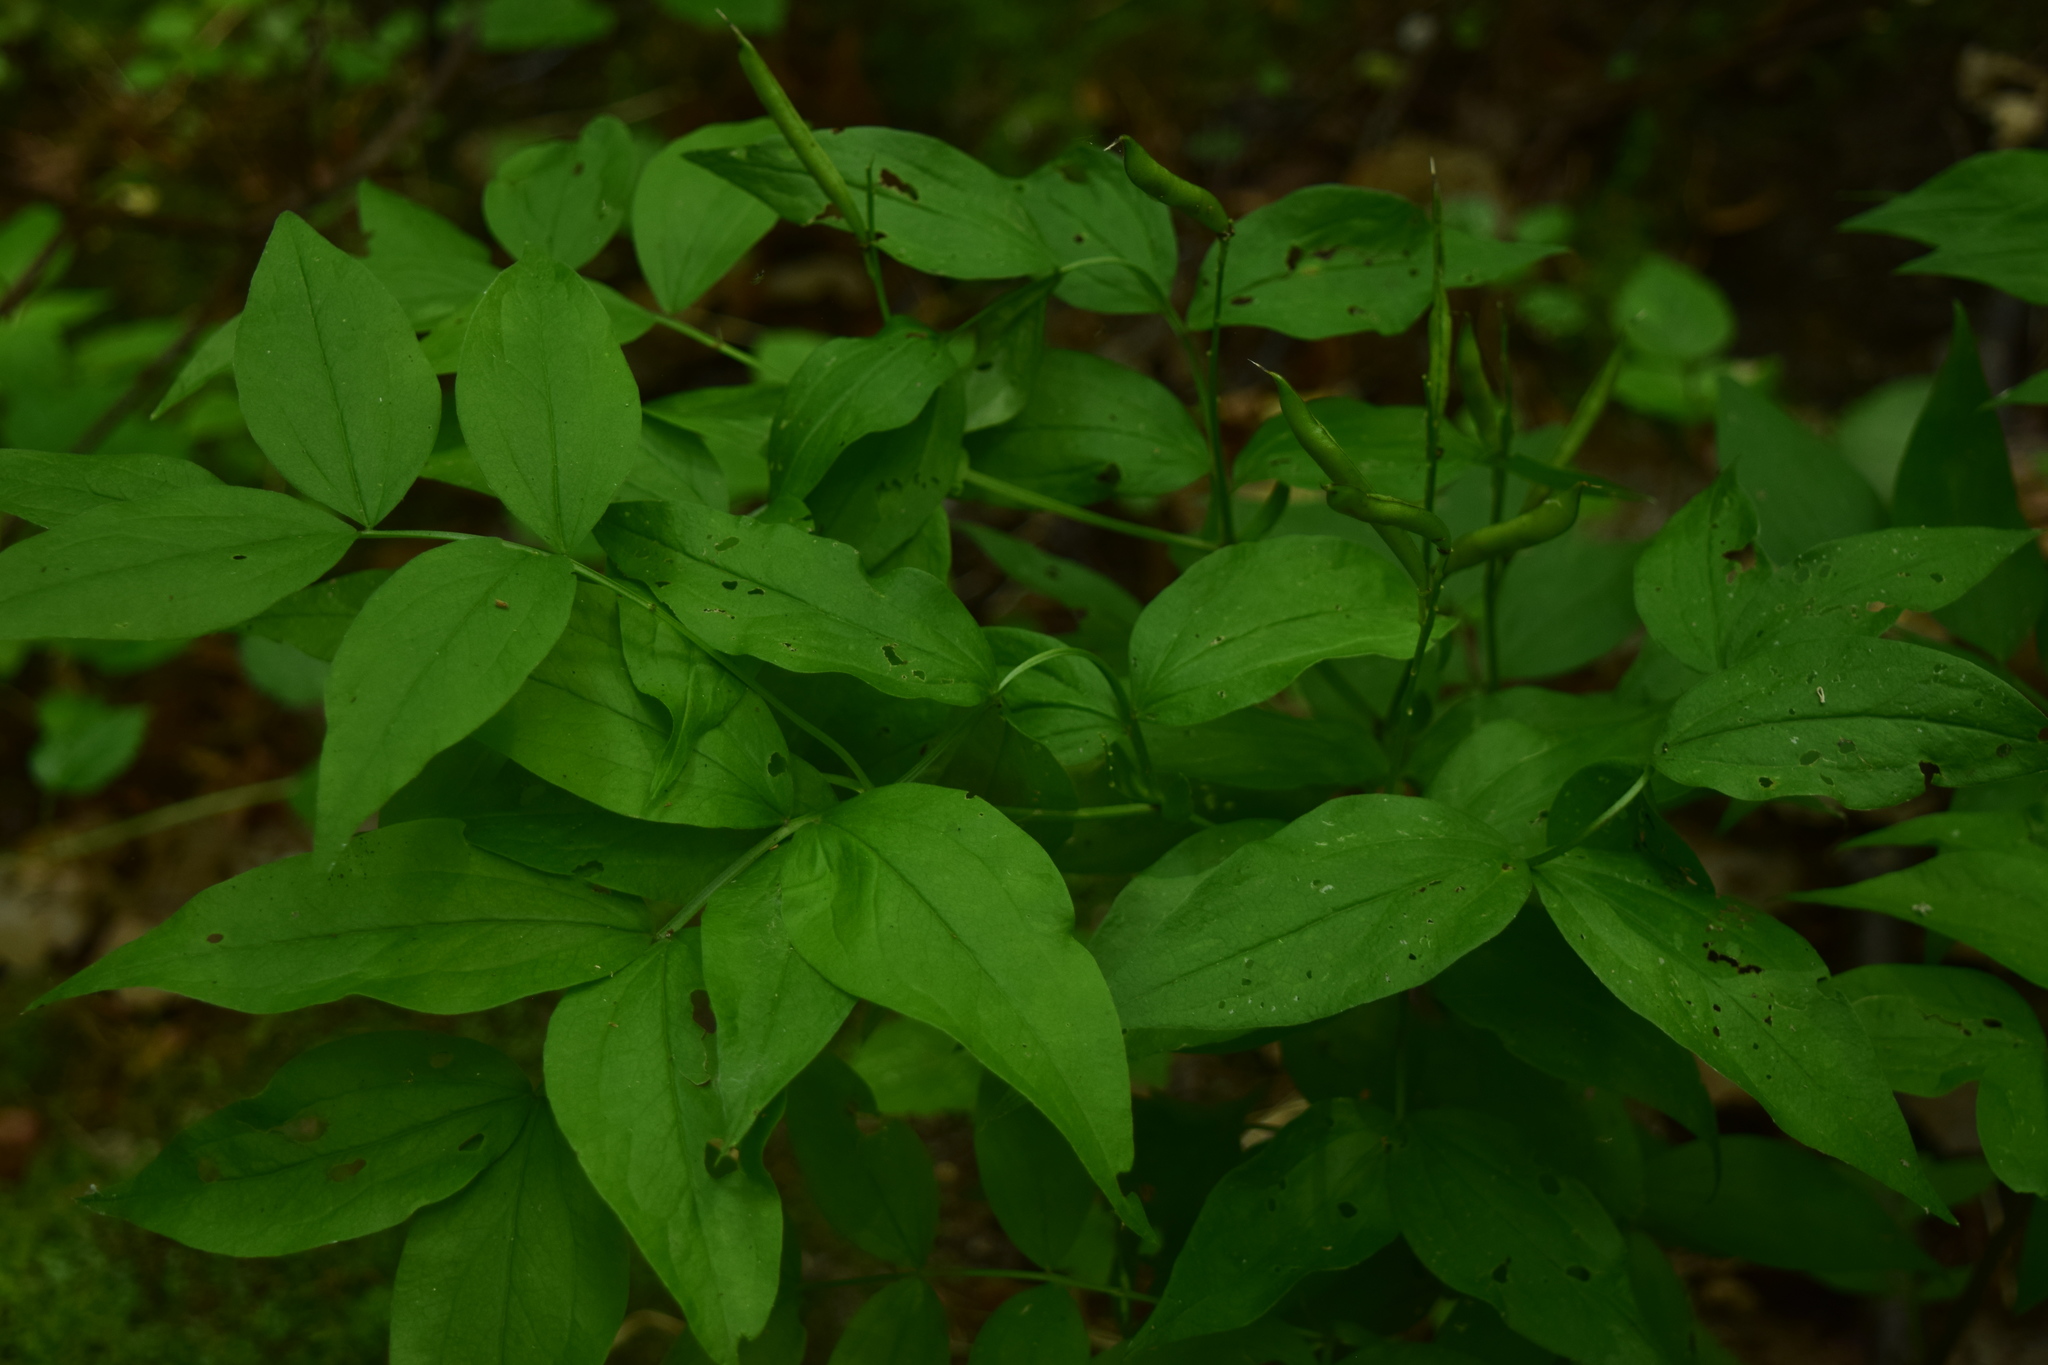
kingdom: Plantae
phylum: Tracheophyta
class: Magnoliopsida
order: Fabales
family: Fabaceae
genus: Lathyrus
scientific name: Lathyrus vernus
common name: Spring pea
